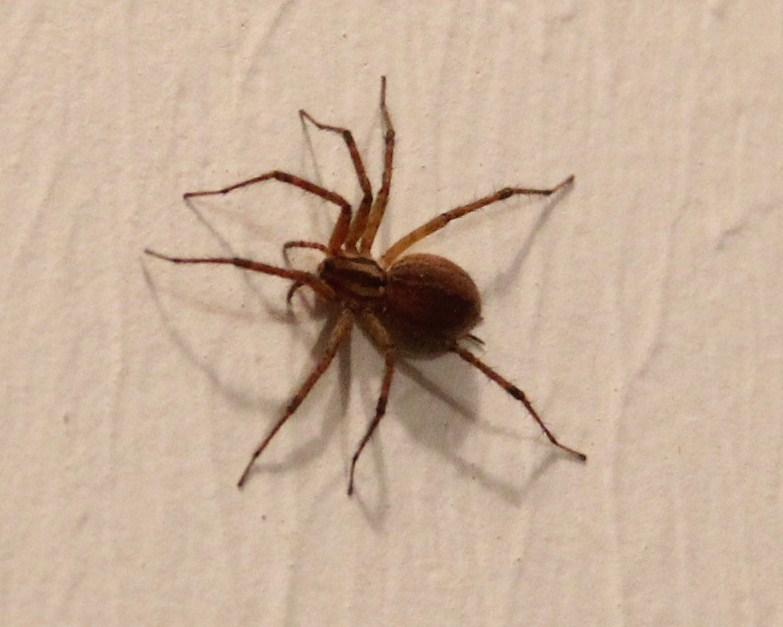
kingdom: Animalia
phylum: Arthropoda
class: Arachnida
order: Araneae
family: Agelenidae
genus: Agelenopsis
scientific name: Agelenopsis
